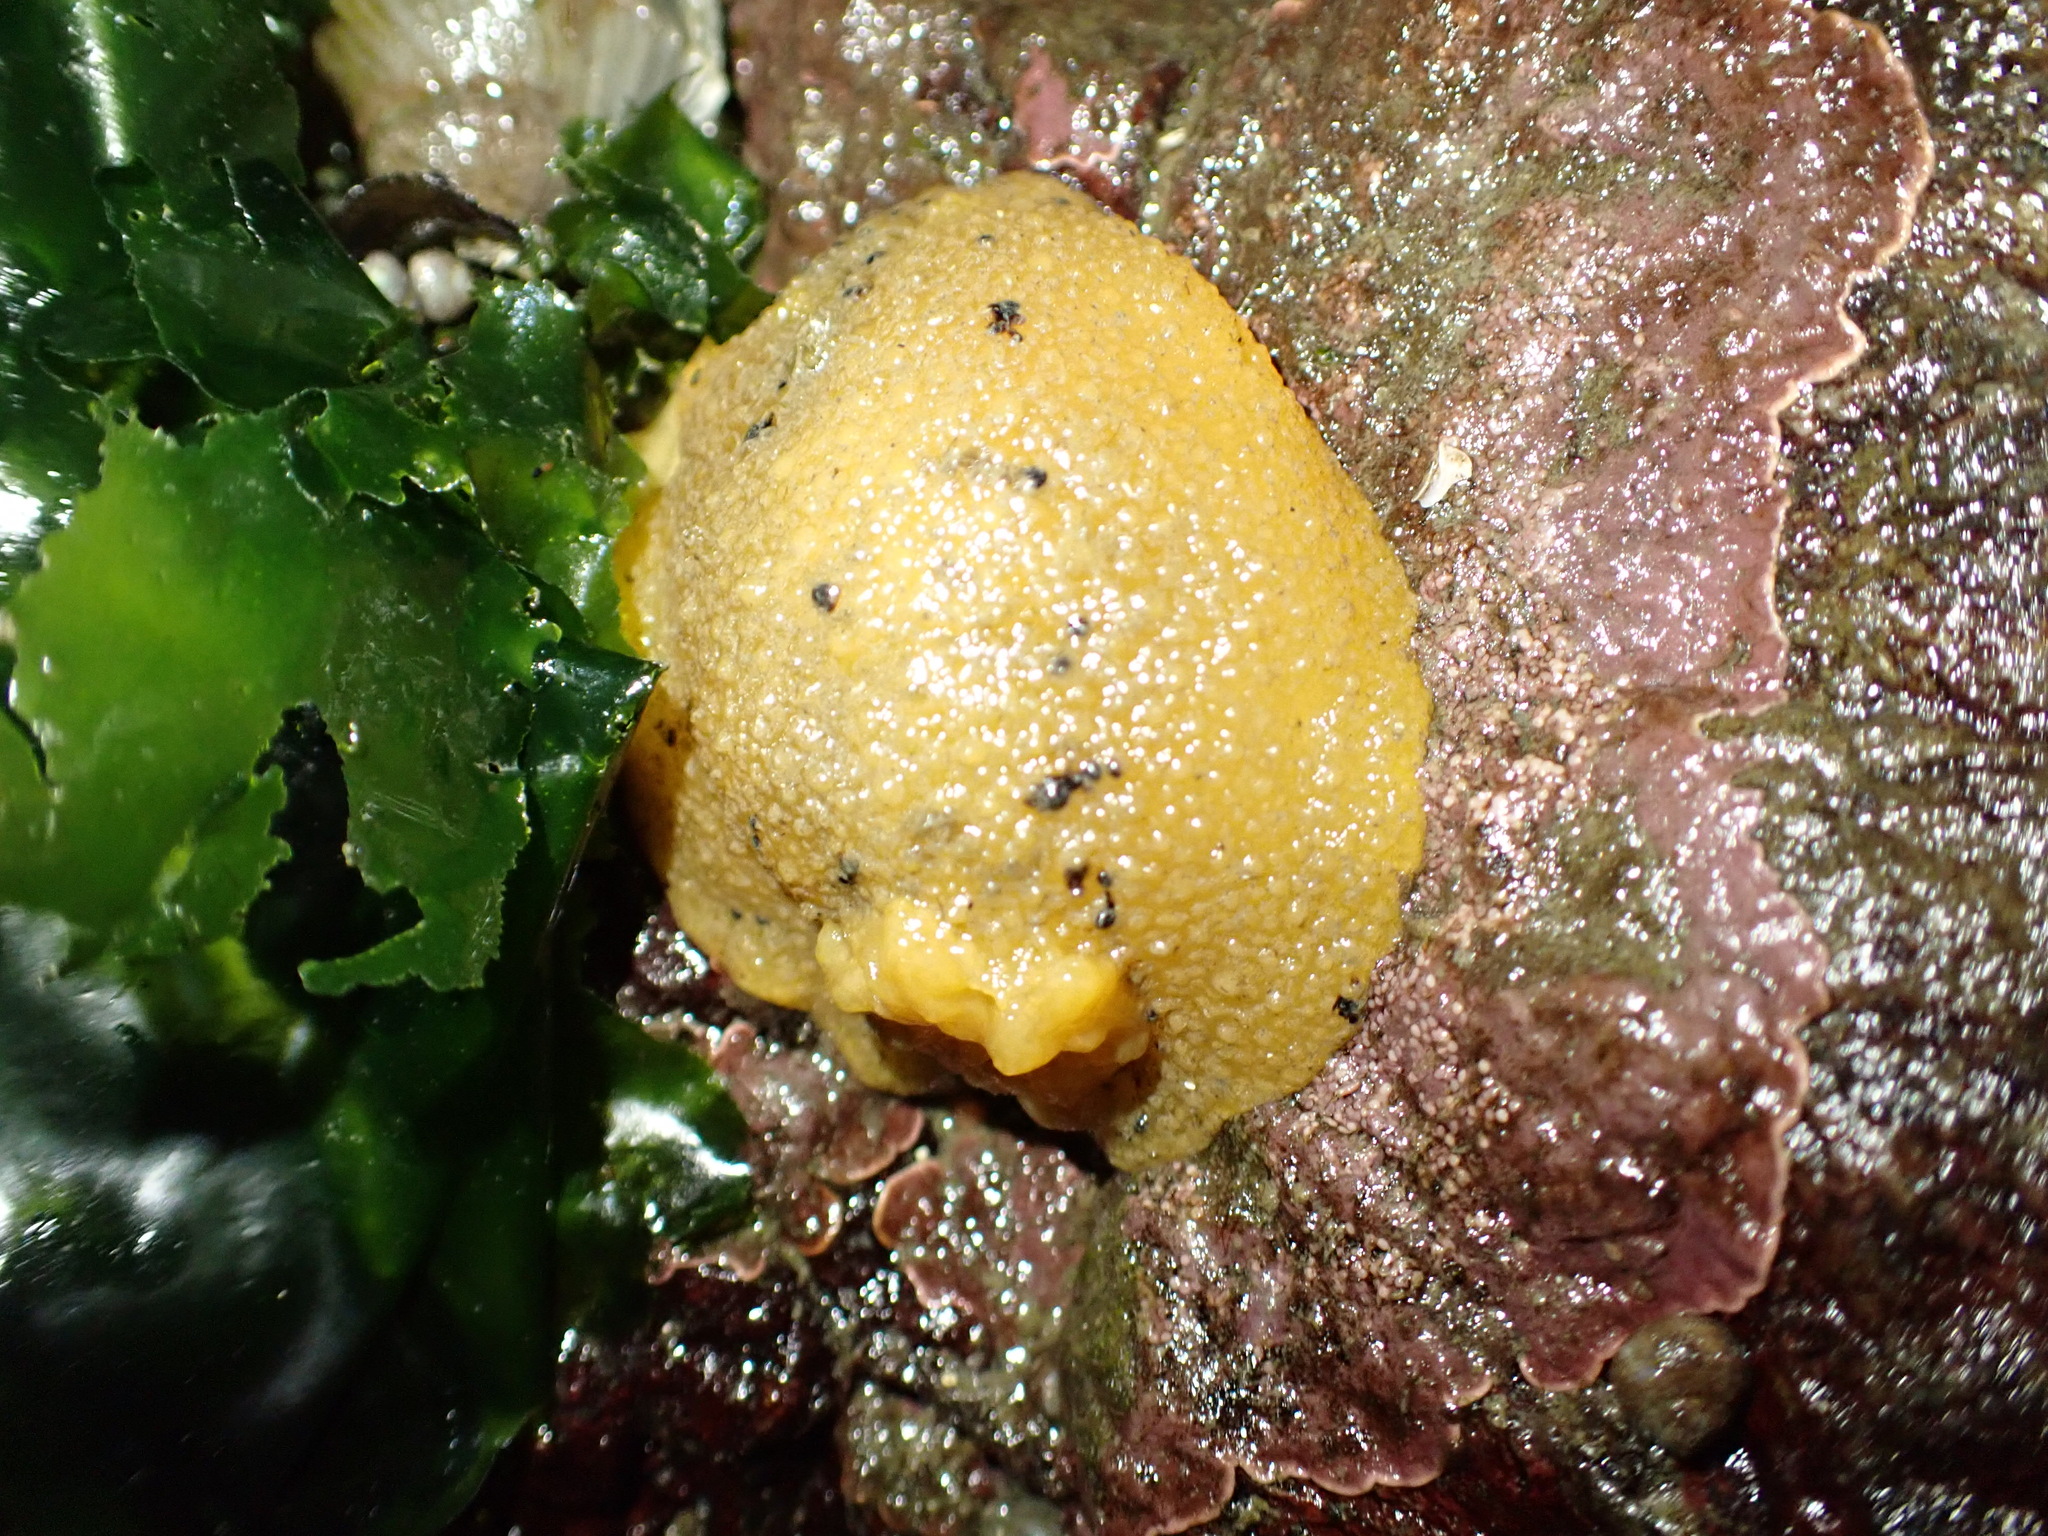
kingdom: Animalia
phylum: Mollusca
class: Gastropoda
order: Nudibranchia
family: Dorididae
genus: Doris
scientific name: Doris montereyensis
